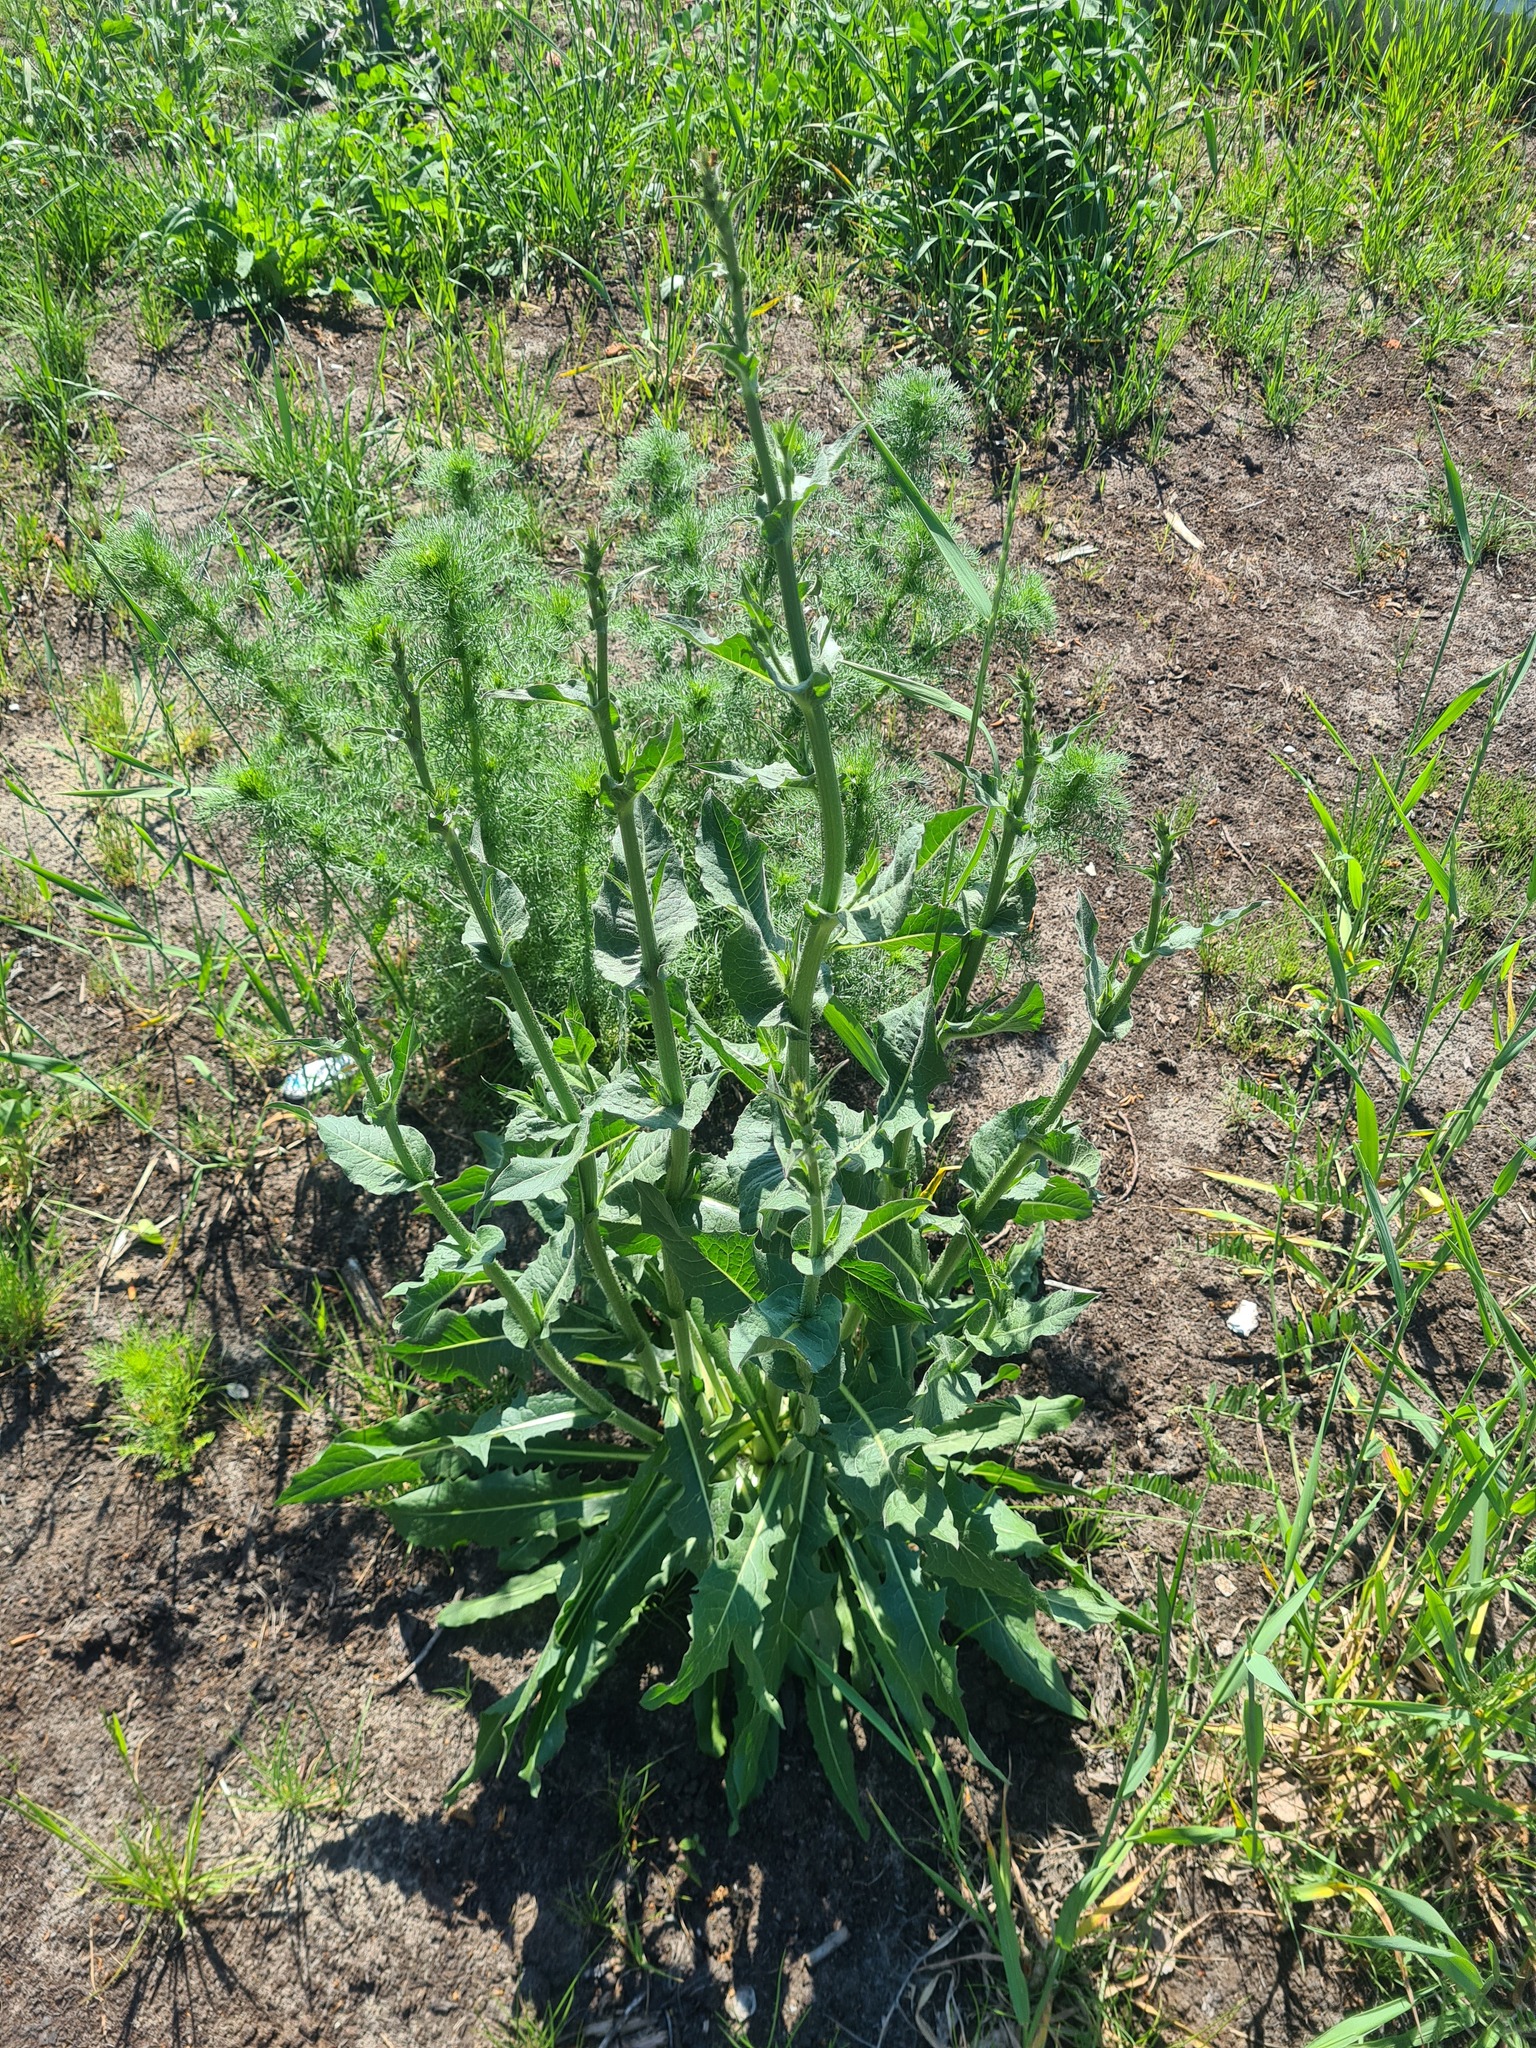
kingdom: Plantae
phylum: Tracheophyta
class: Magnoliopsida
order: Asterales
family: Asteraceae
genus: Cichorium
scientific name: Cichorium intybus
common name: Chicory
